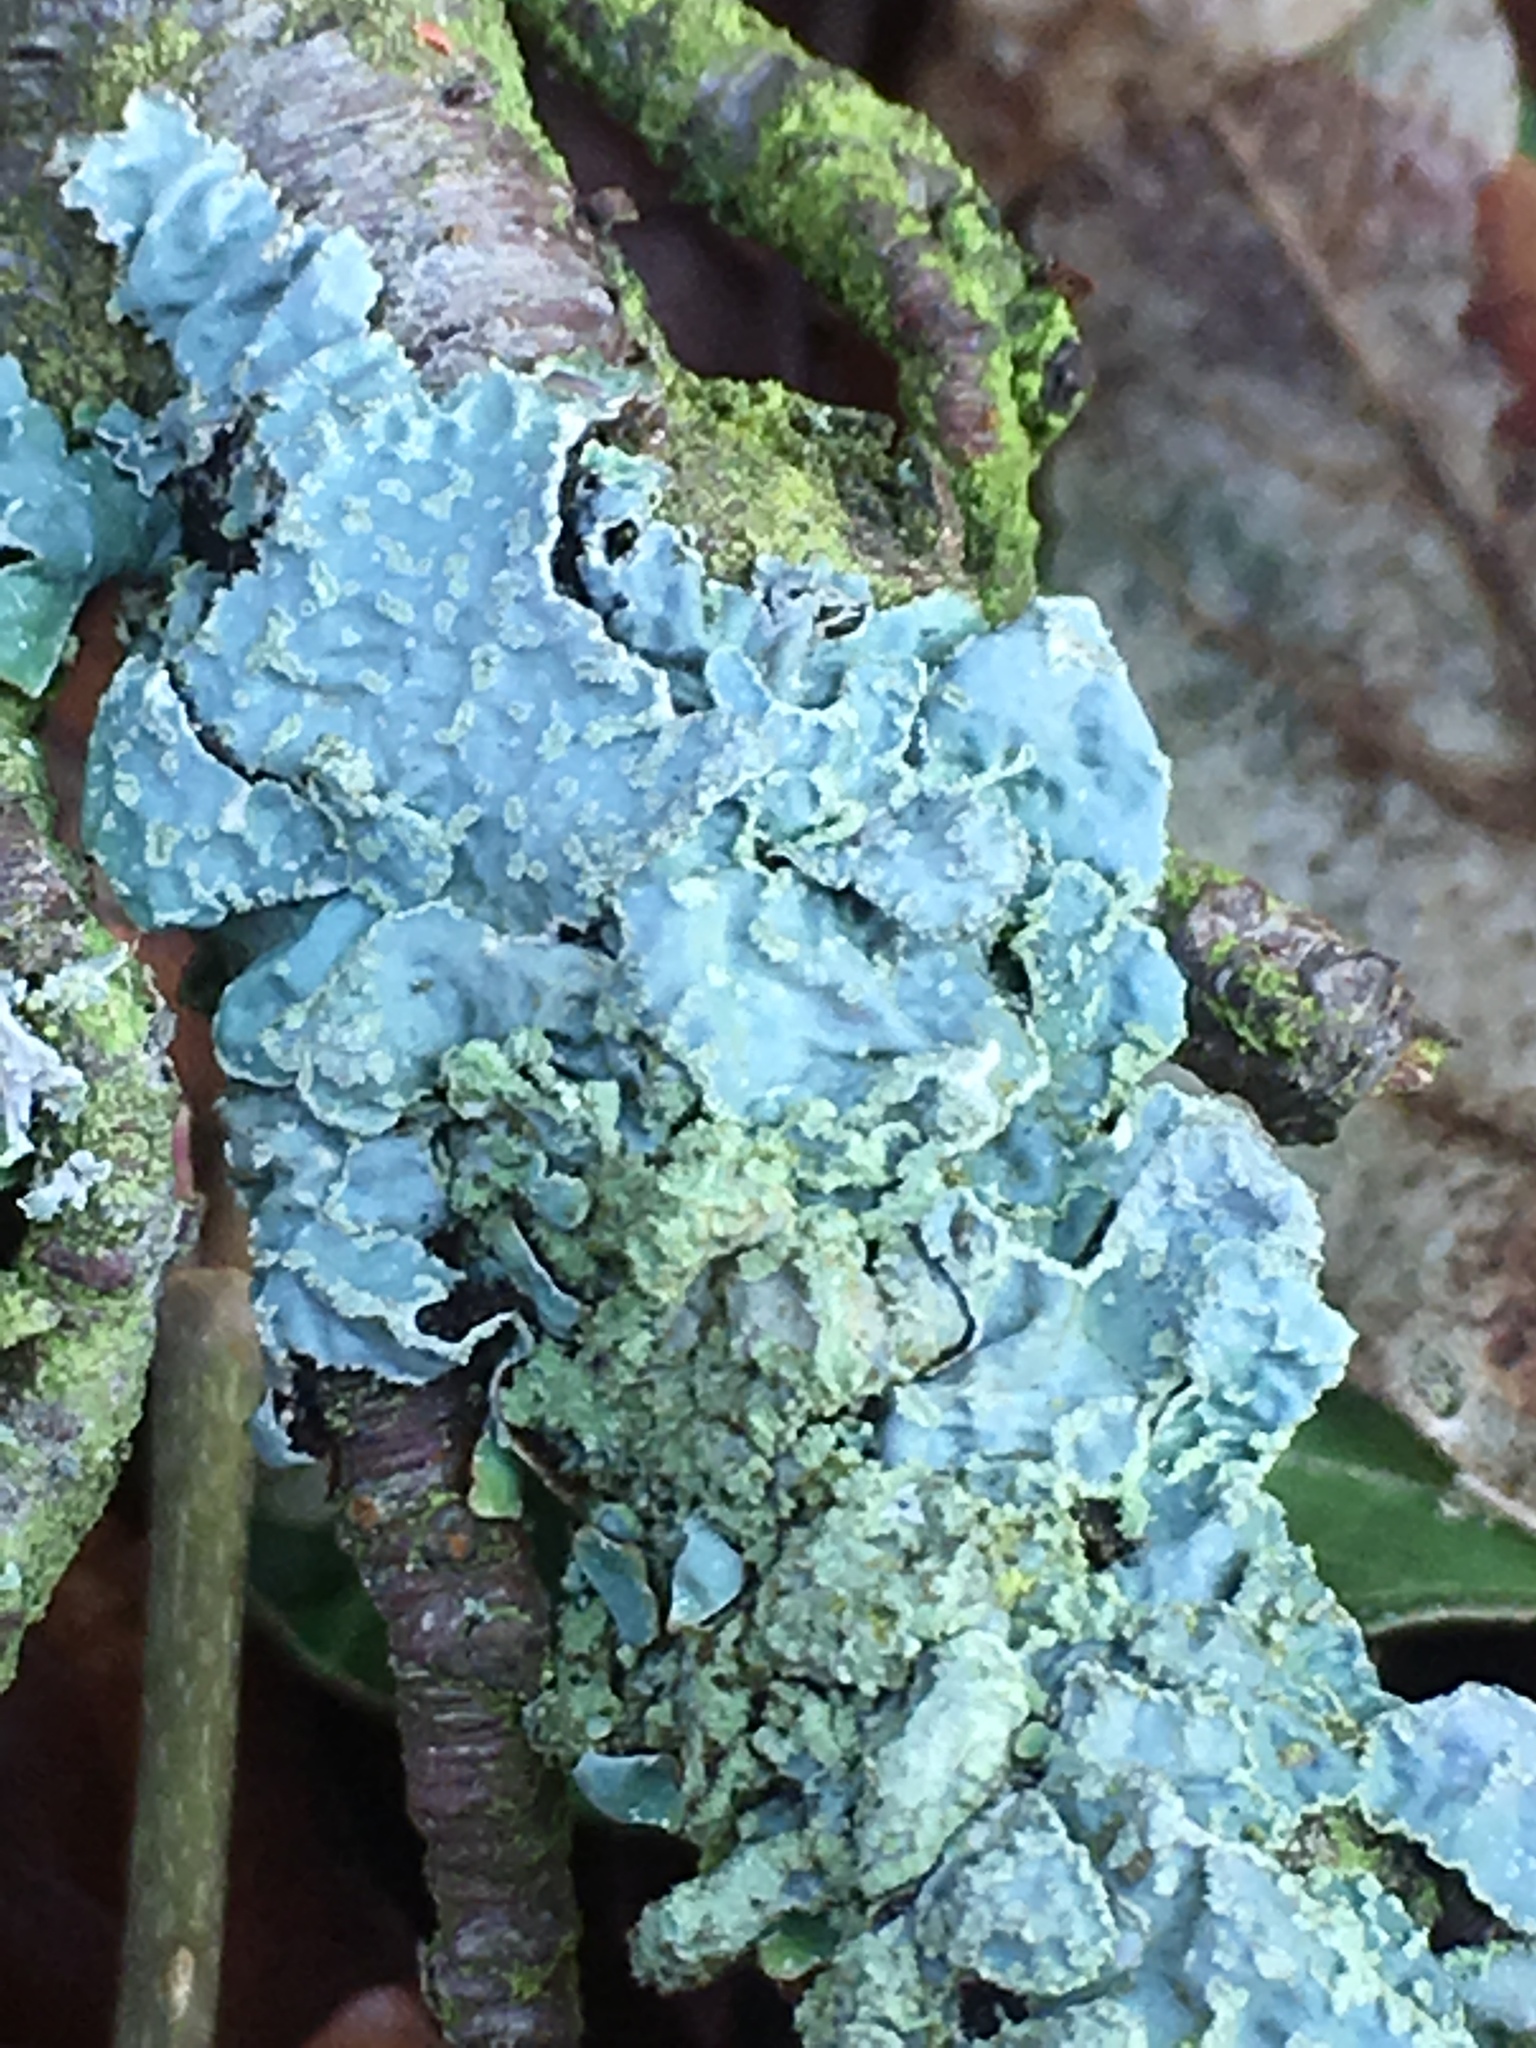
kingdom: Fungi
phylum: Ascomycota
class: Lecanoromycetes
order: Lecanorales
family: Parmeliaceae
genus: Parmelia
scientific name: Parmelia sulcata
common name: Netted shield lichen
